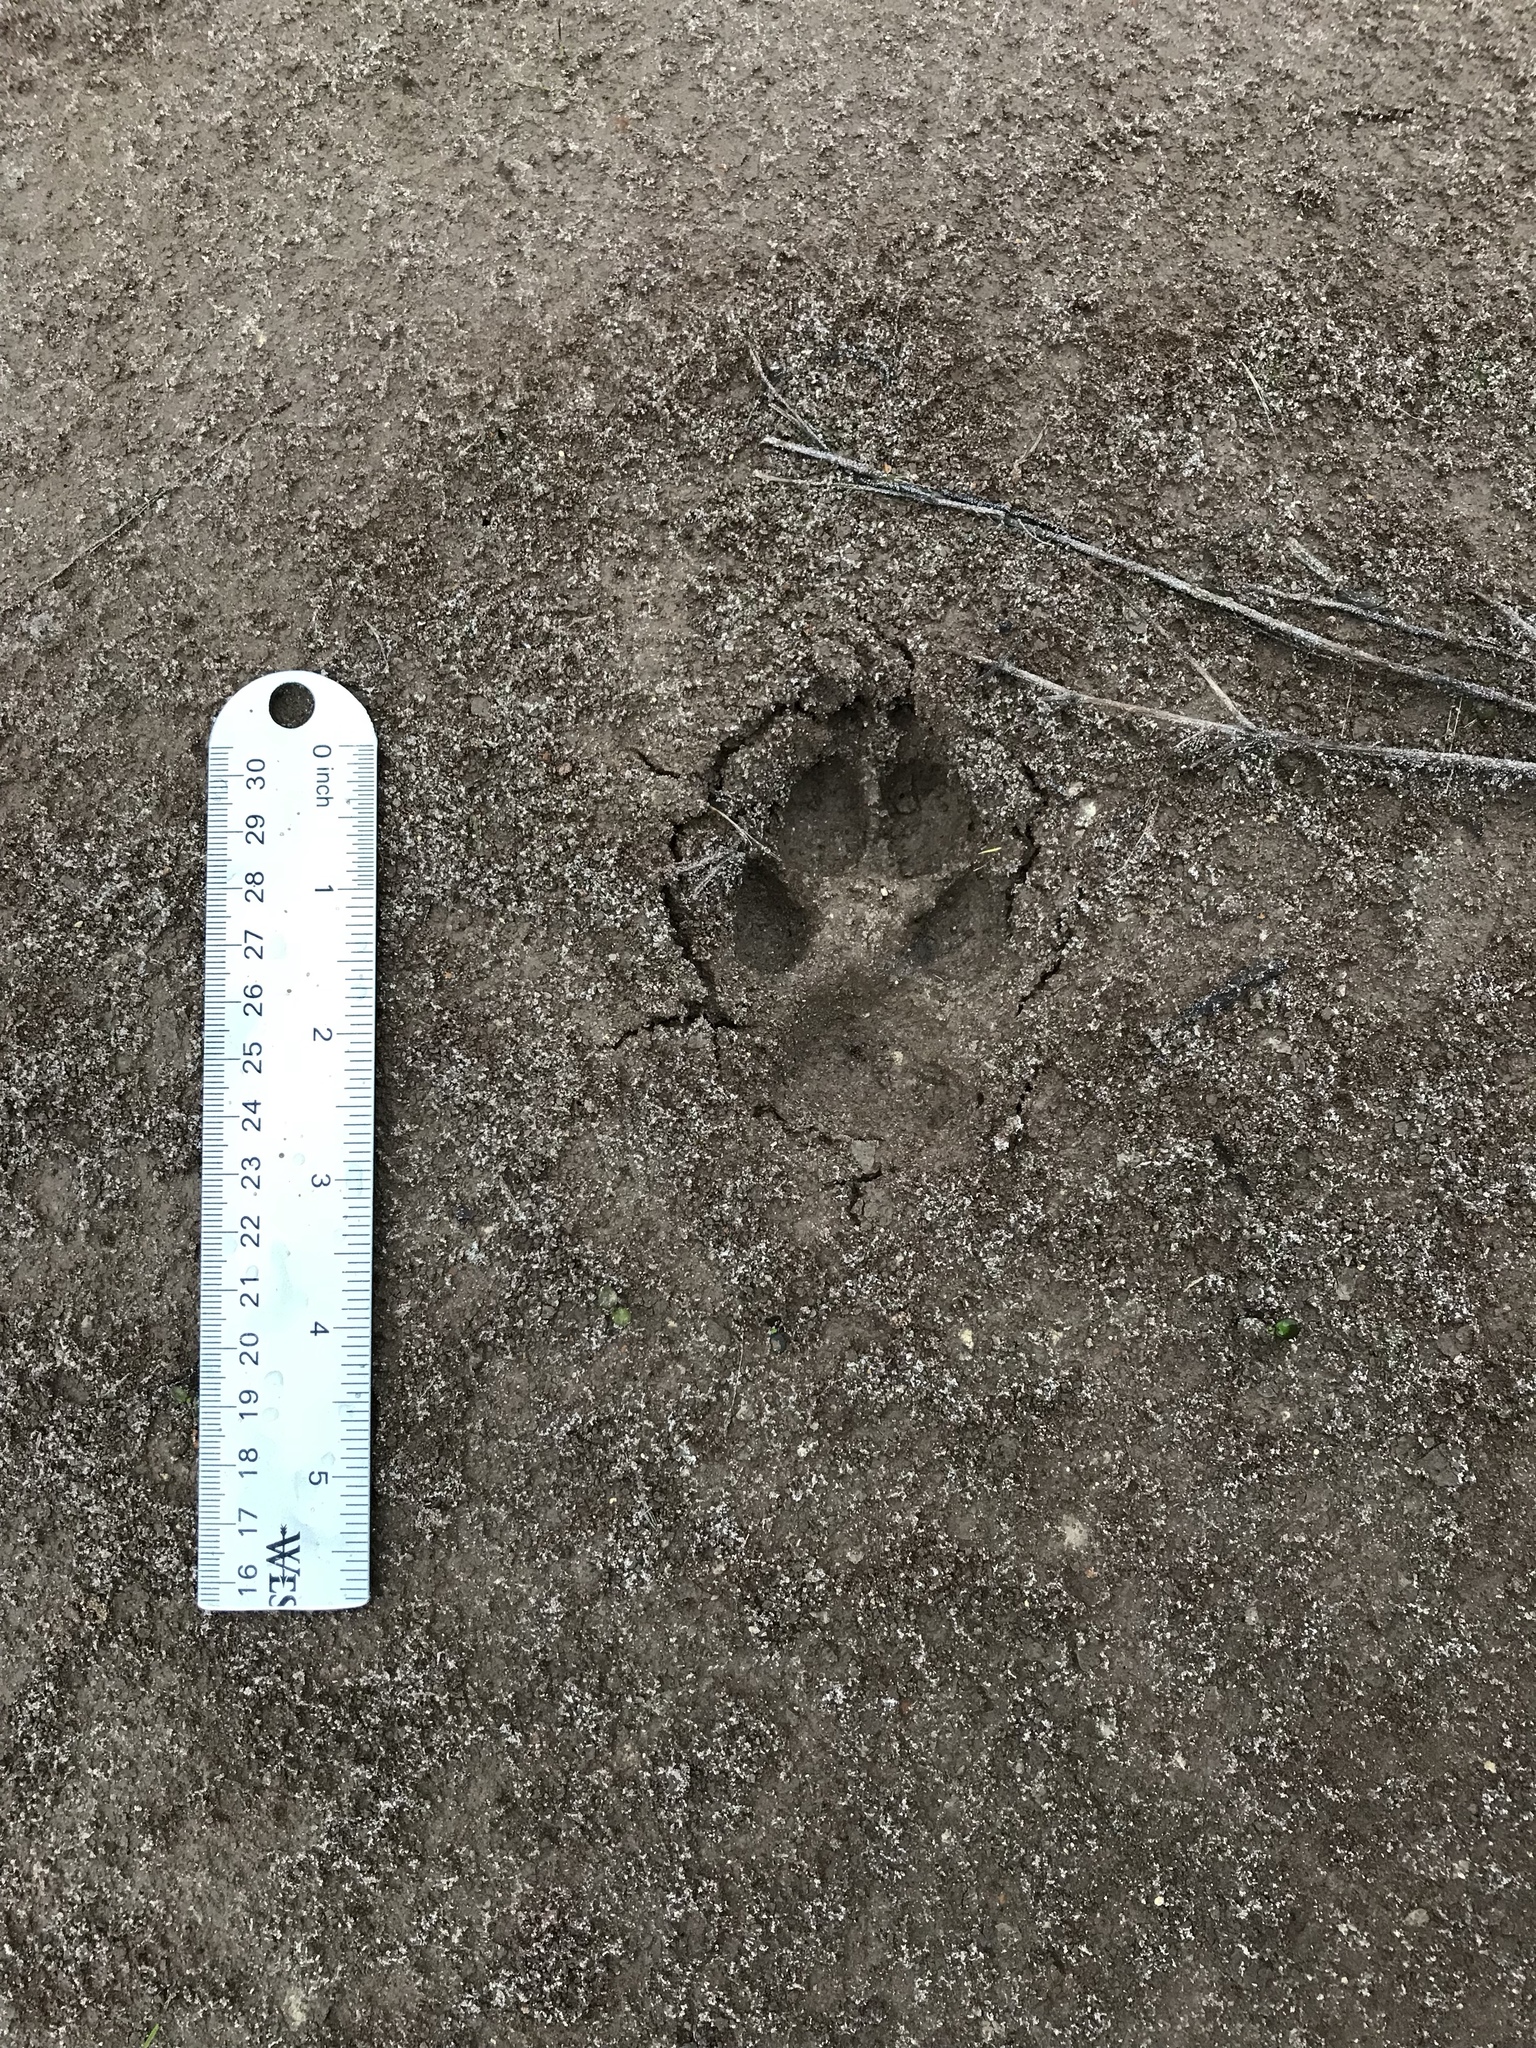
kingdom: Animalia
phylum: Chordata
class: Mammalia
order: Carnivora
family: Canidae
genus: Canis
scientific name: Canis latrans
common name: Coyote
